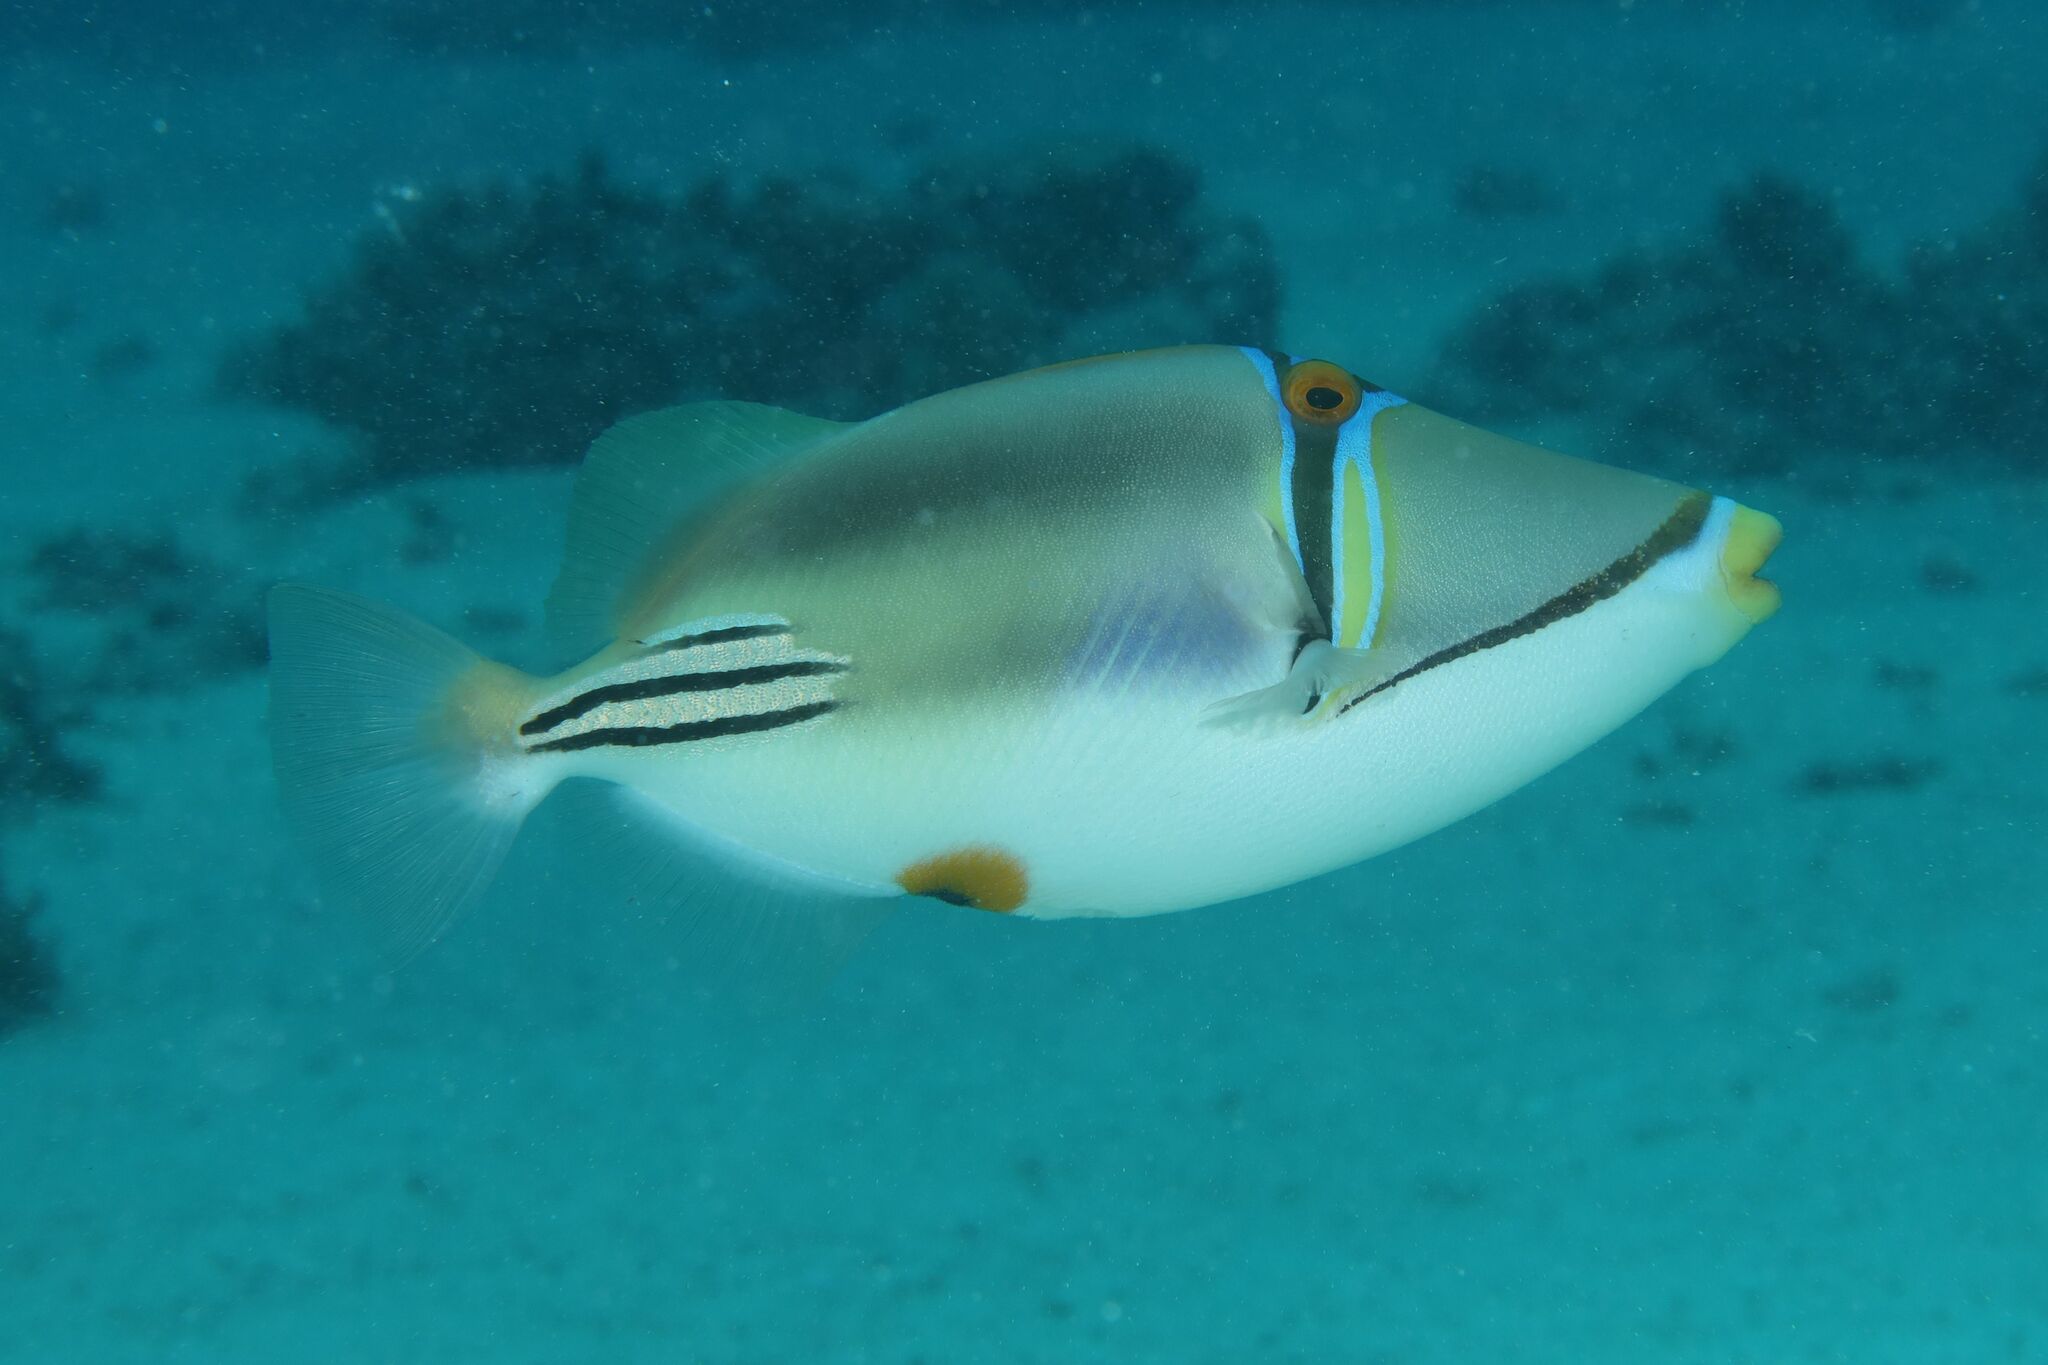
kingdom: Animalia
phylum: Chordata
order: Tetraodontiformes
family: Balistidae
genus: Rhinecanthus
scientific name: Rhinecanthus assasi
